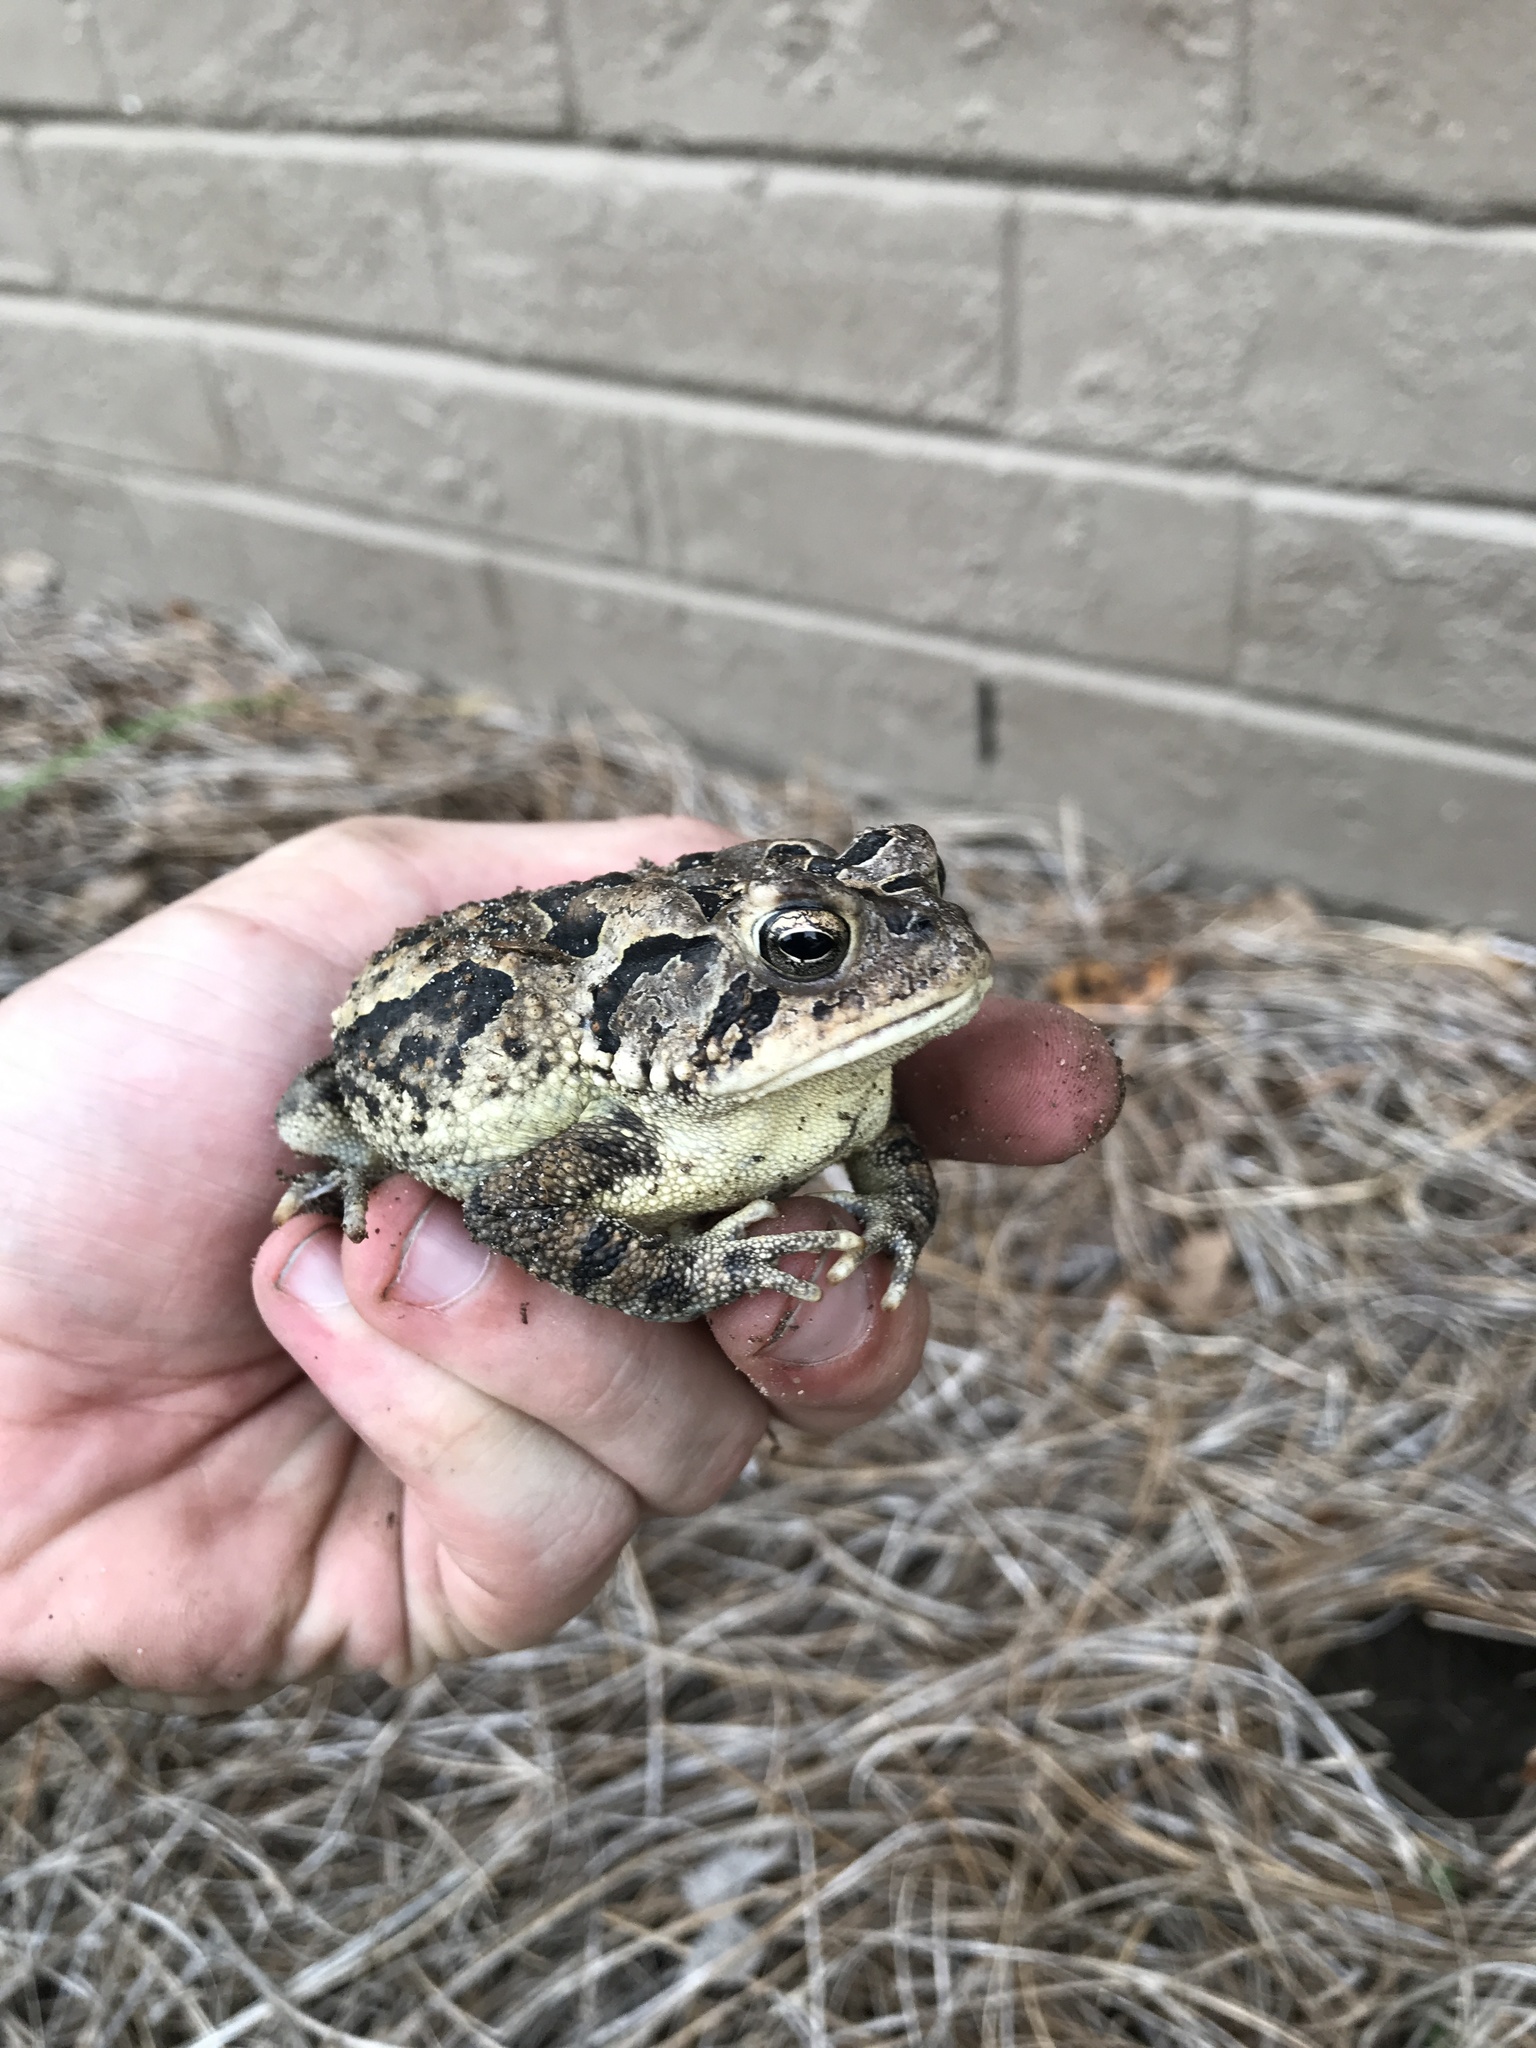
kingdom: Animalia
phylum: Chordata
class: Amphibia
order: Anura
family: Bufonidae
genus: Anaxyrus
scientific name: Anaxyrus terrestris
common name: Southern toad
